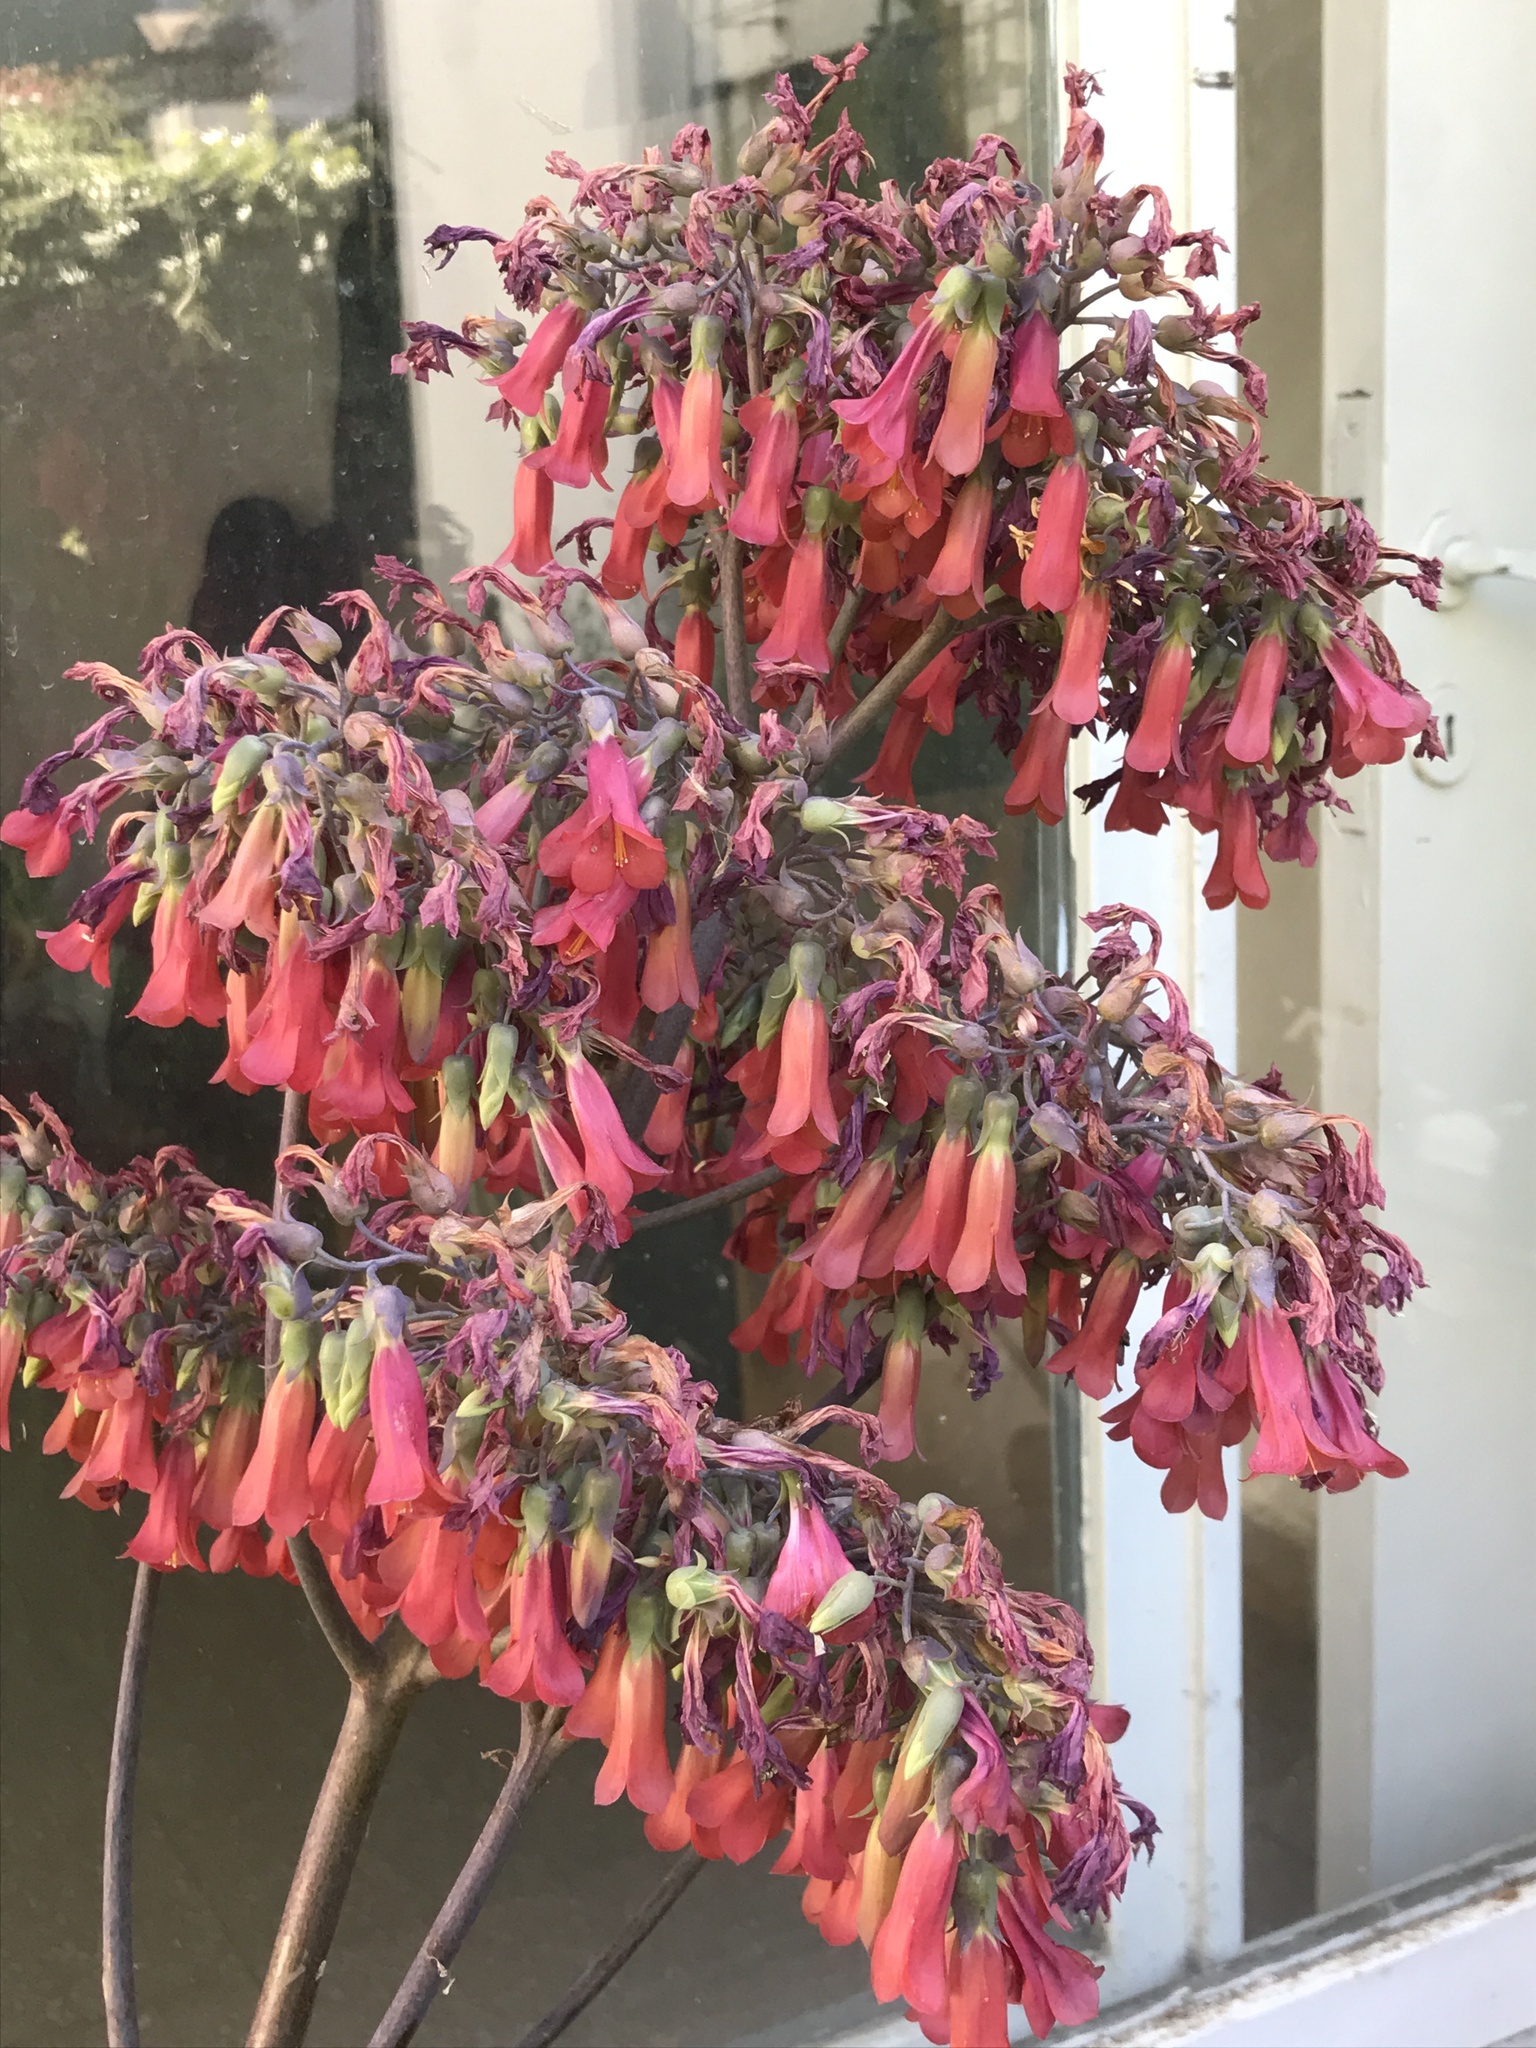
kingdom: Plantae
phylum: Tracheophyta
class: Magnoliopsida
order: Saxifragales
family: Crassulaceae
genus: Kalanchoe
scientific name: Kalanchoe houghtonii
